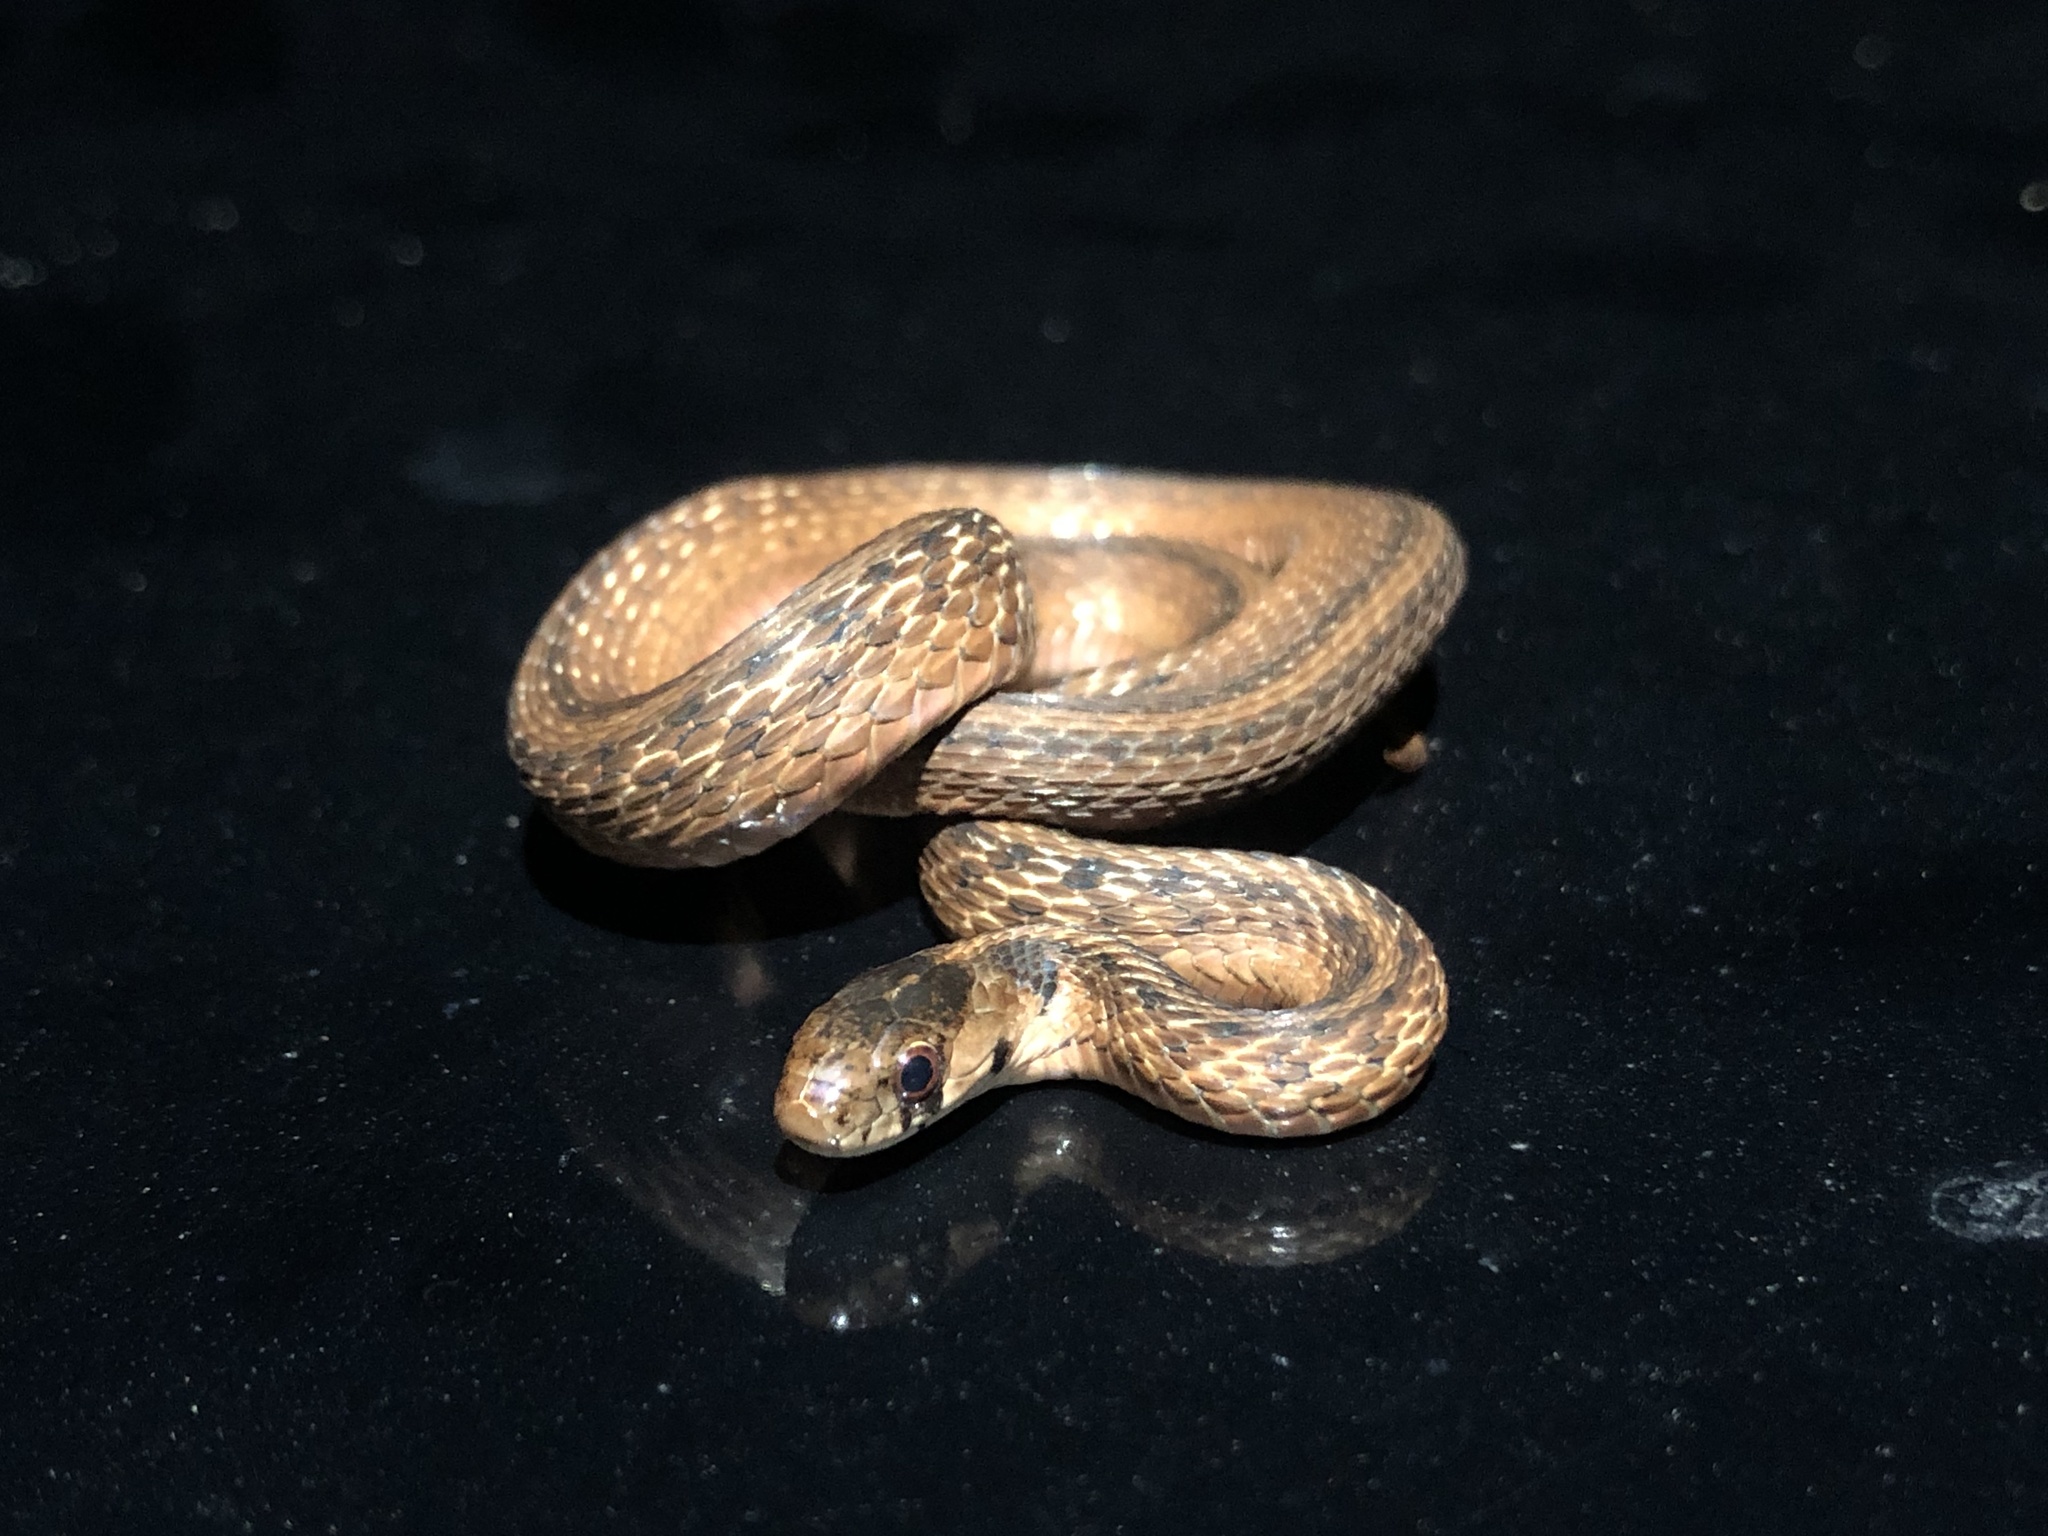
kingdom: Animalia
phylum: Chordata
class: Squamata
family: Colubridae
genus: Storeria
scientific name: Storeria dekayi
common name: (dekay’s) brown snake
